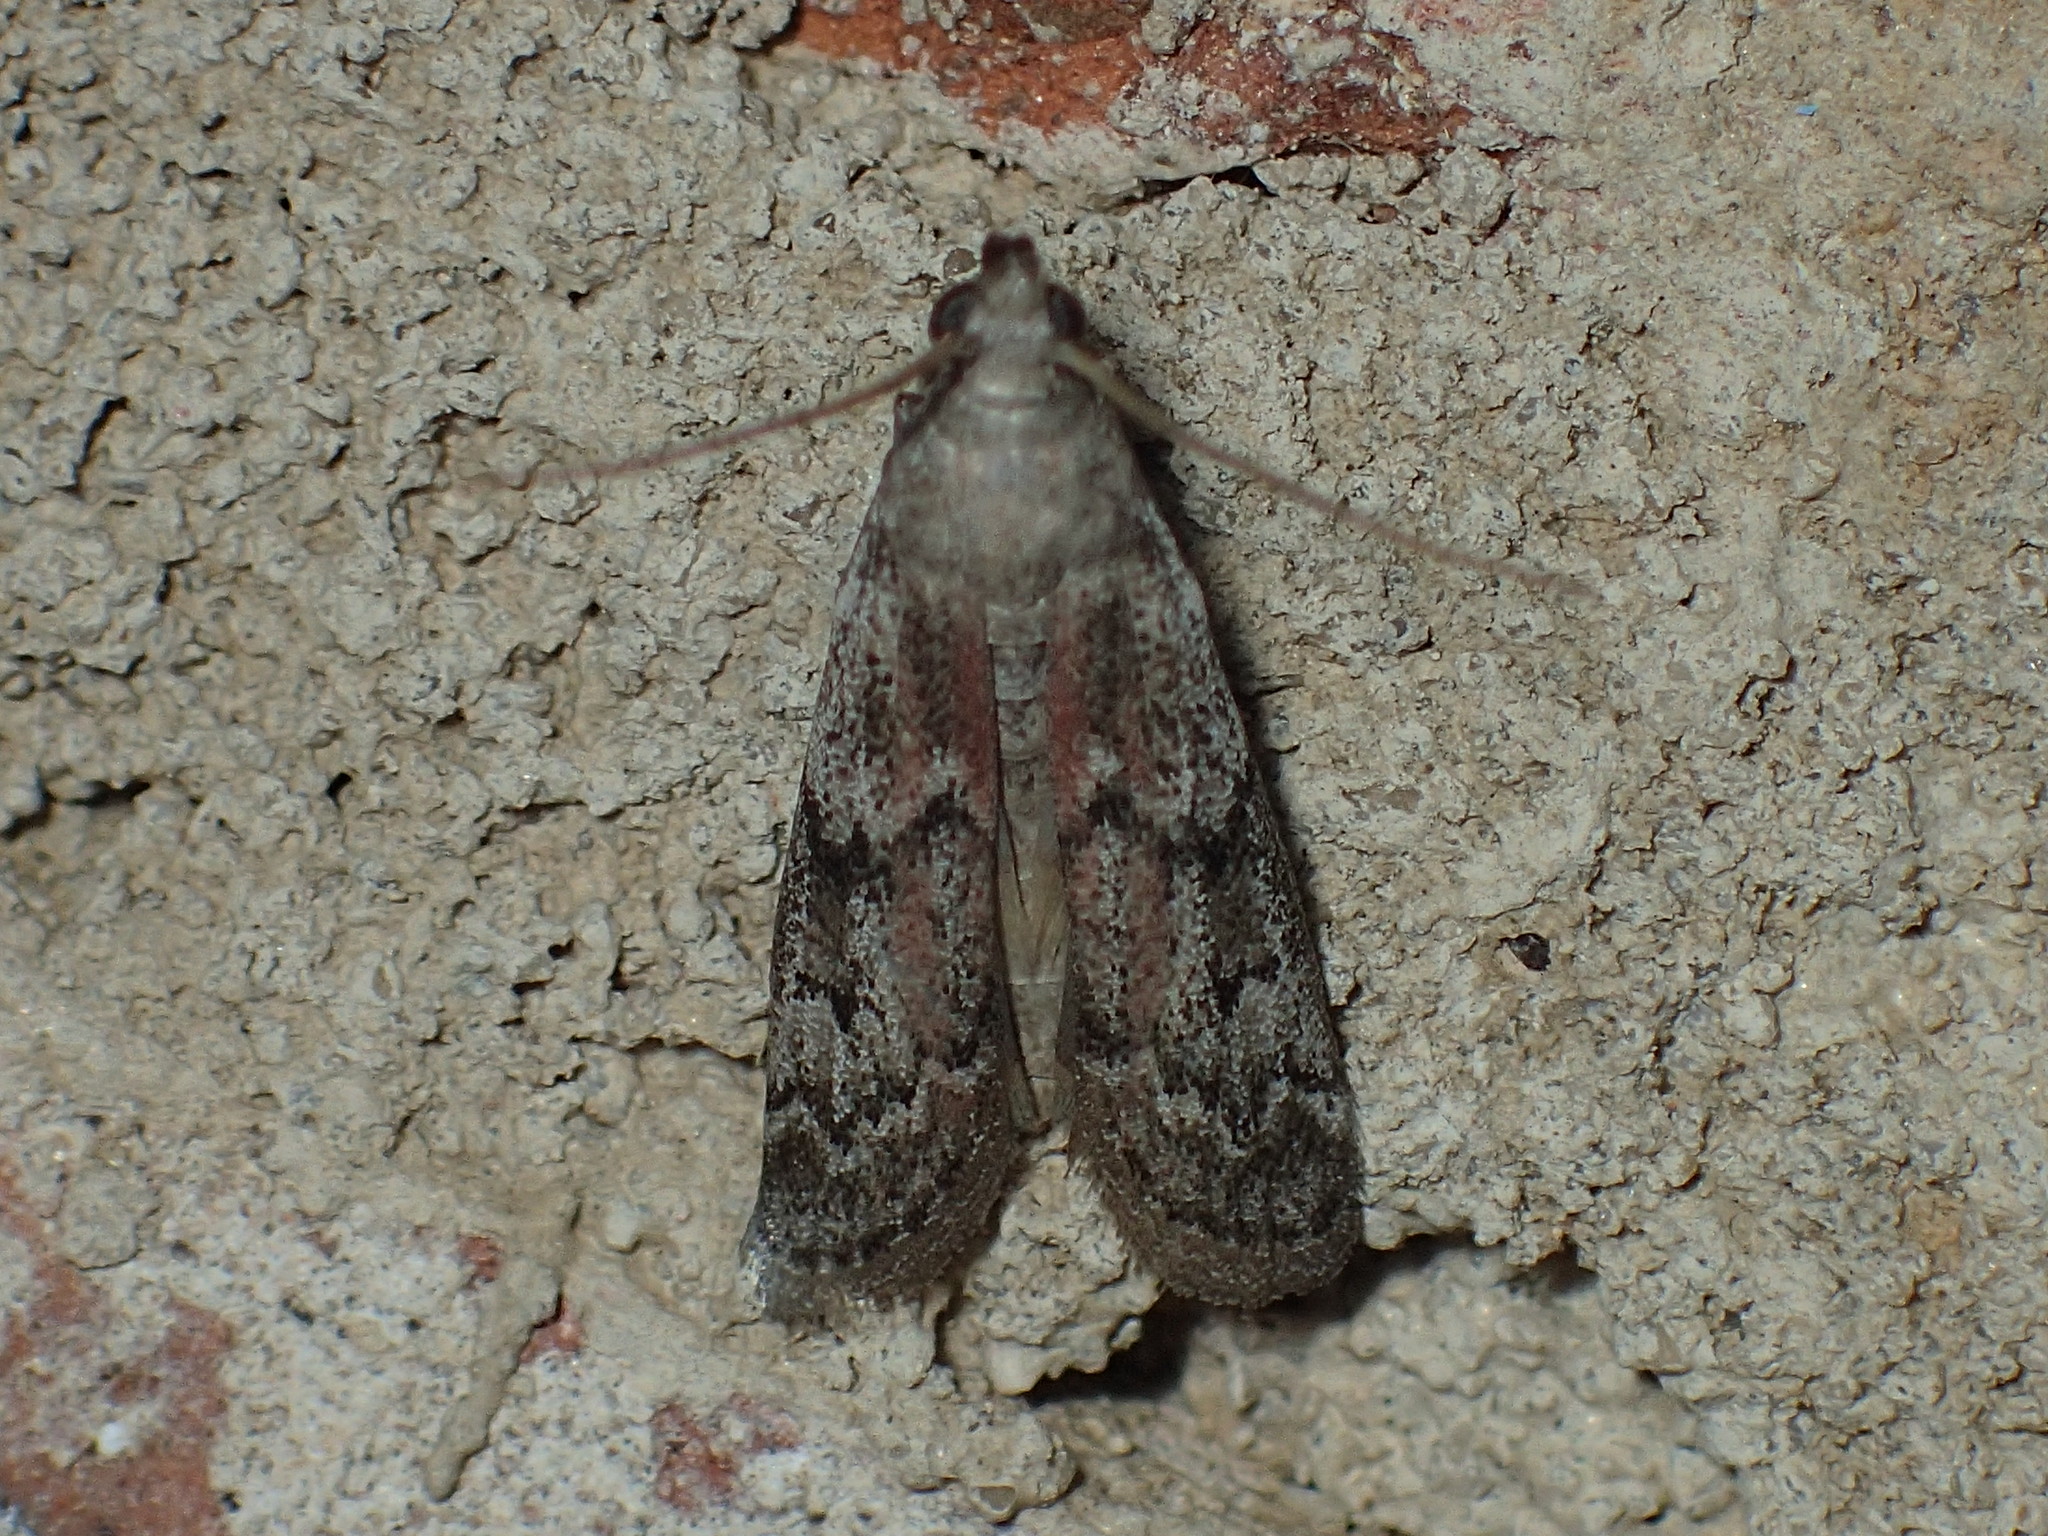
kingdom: Animalia
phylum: Arthropoda
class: Insecta
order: Lepidoptera
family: Pyralidae
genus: Vitula
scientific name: Vitula edmandsii
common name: Dried fruit moth
